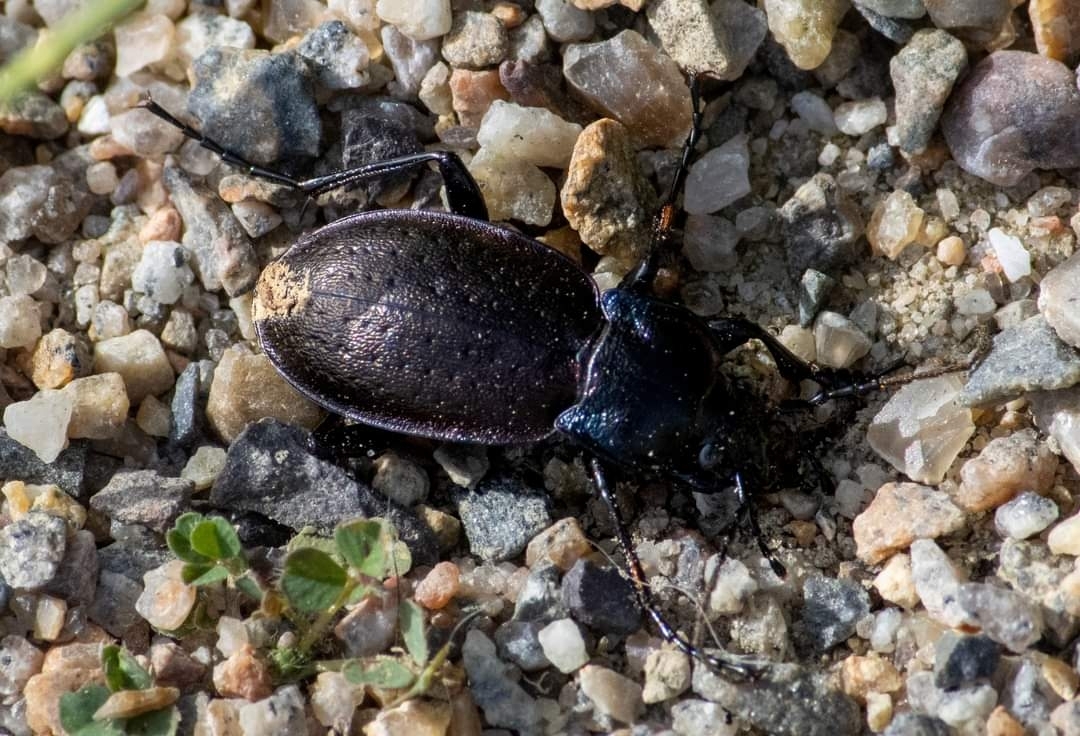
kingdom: Animalia
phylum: Arthropoda
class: Insecta
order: Coleoptera
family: Carabidae
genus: Carabus
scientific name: Carabus nemoralis
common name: European ground beetle
